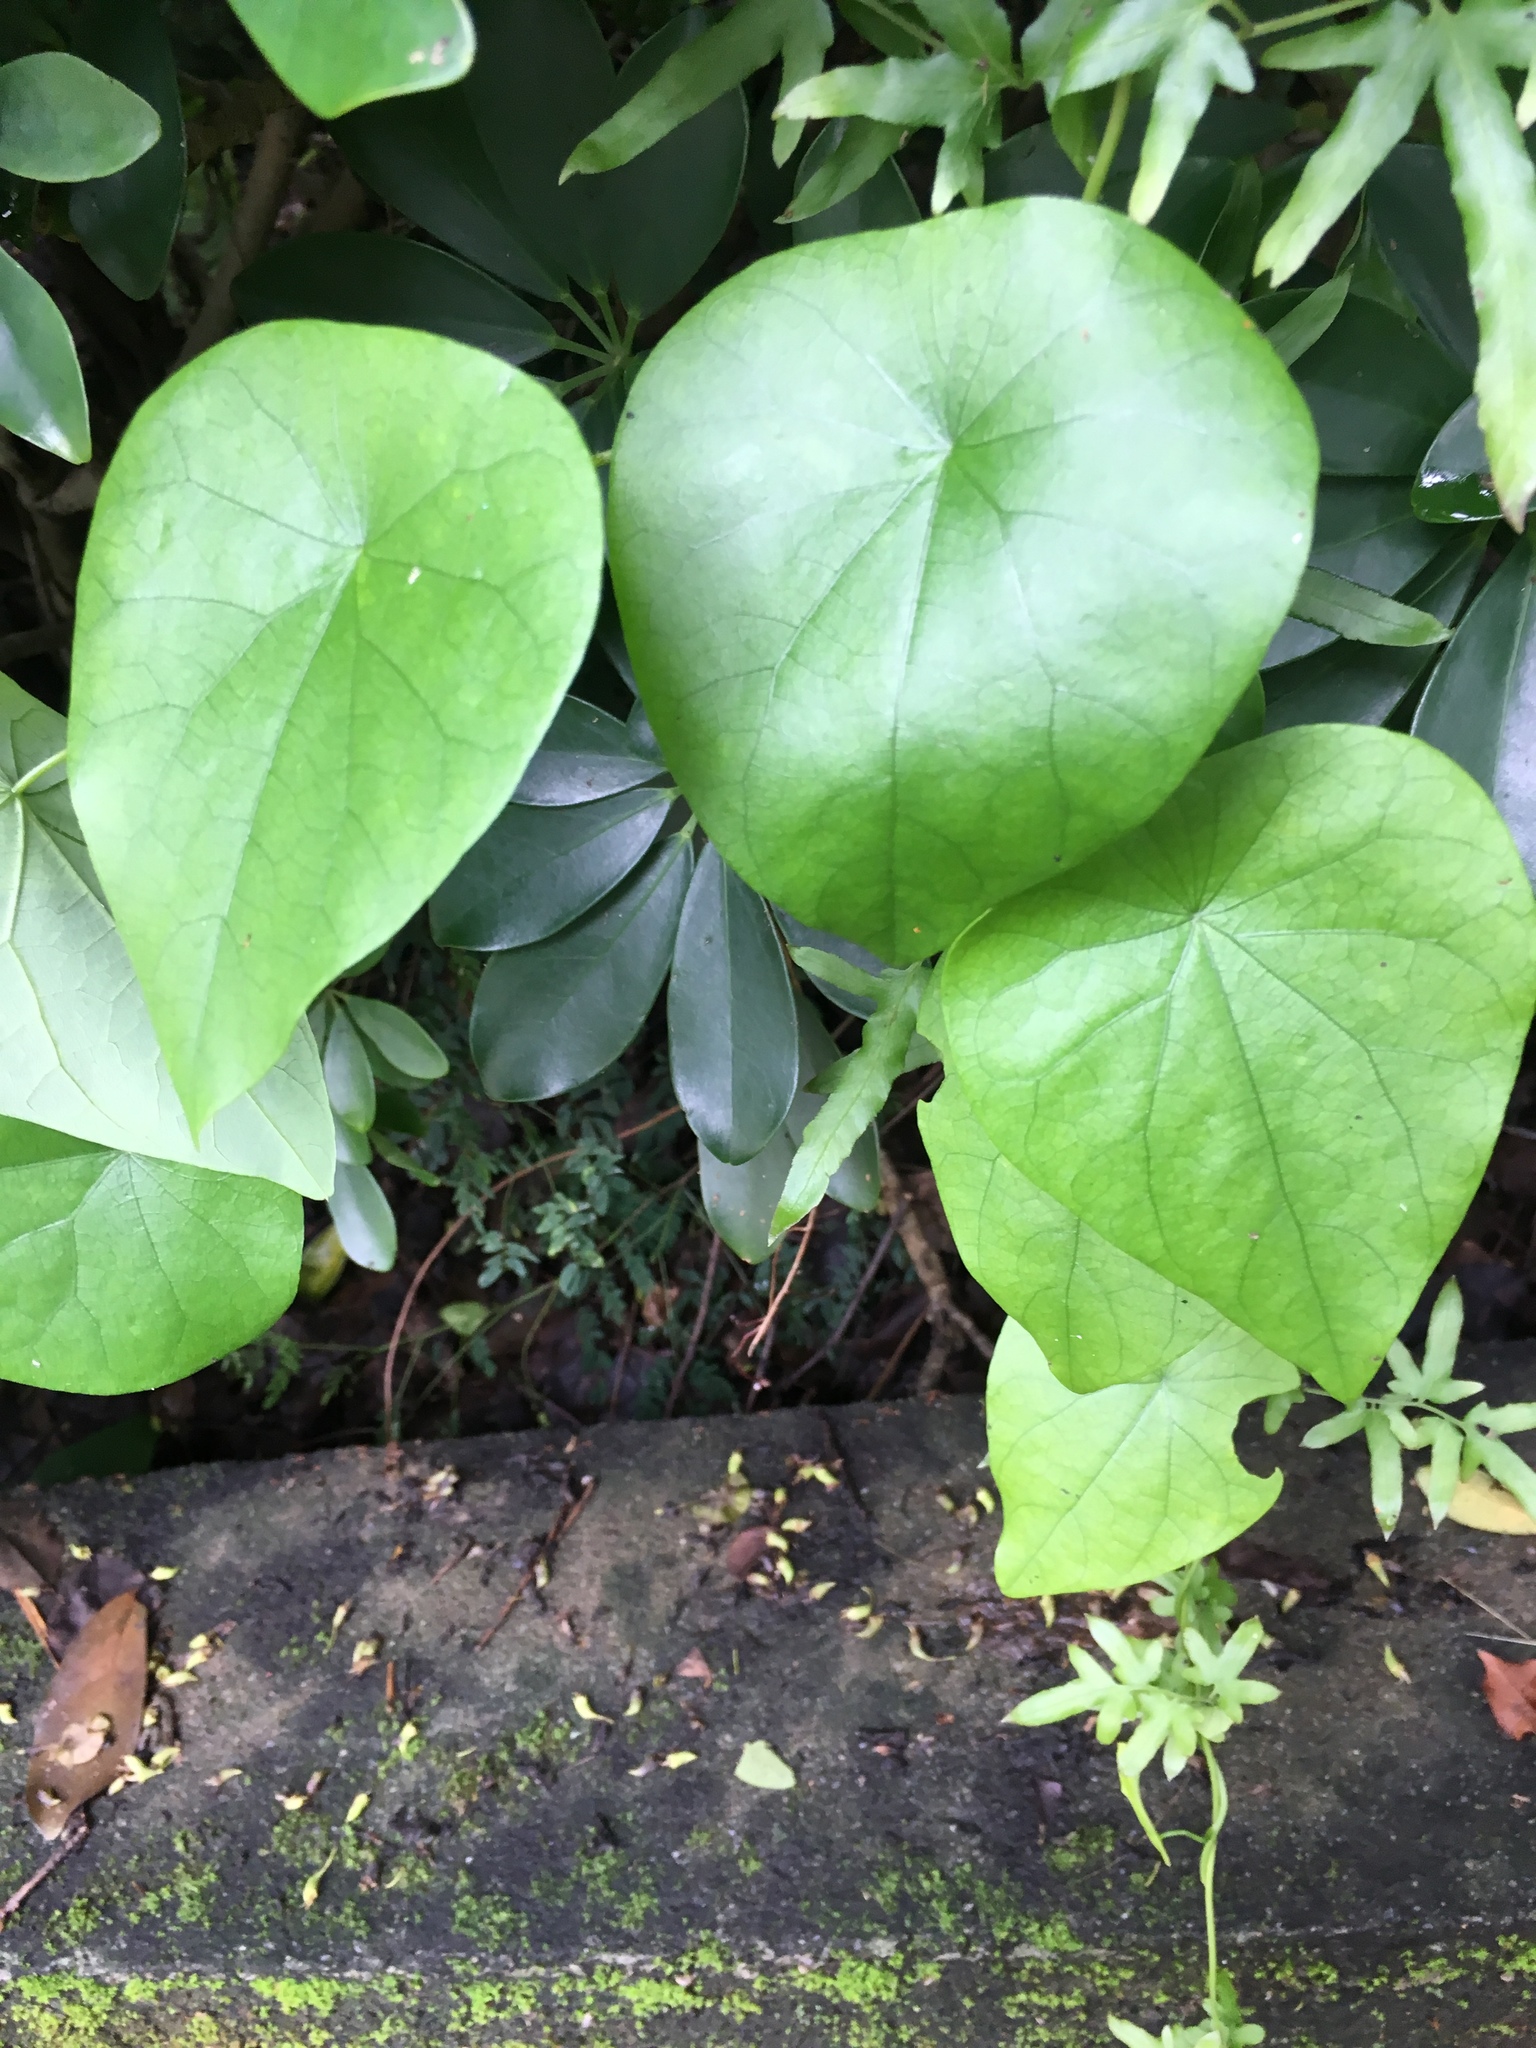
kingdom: Plantae
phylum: Tracheophyta
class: Magnoliopsida
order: Ranunculales
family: Menispermaceae
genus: Stephania
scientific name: Stephania japonica
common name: Snake vine
